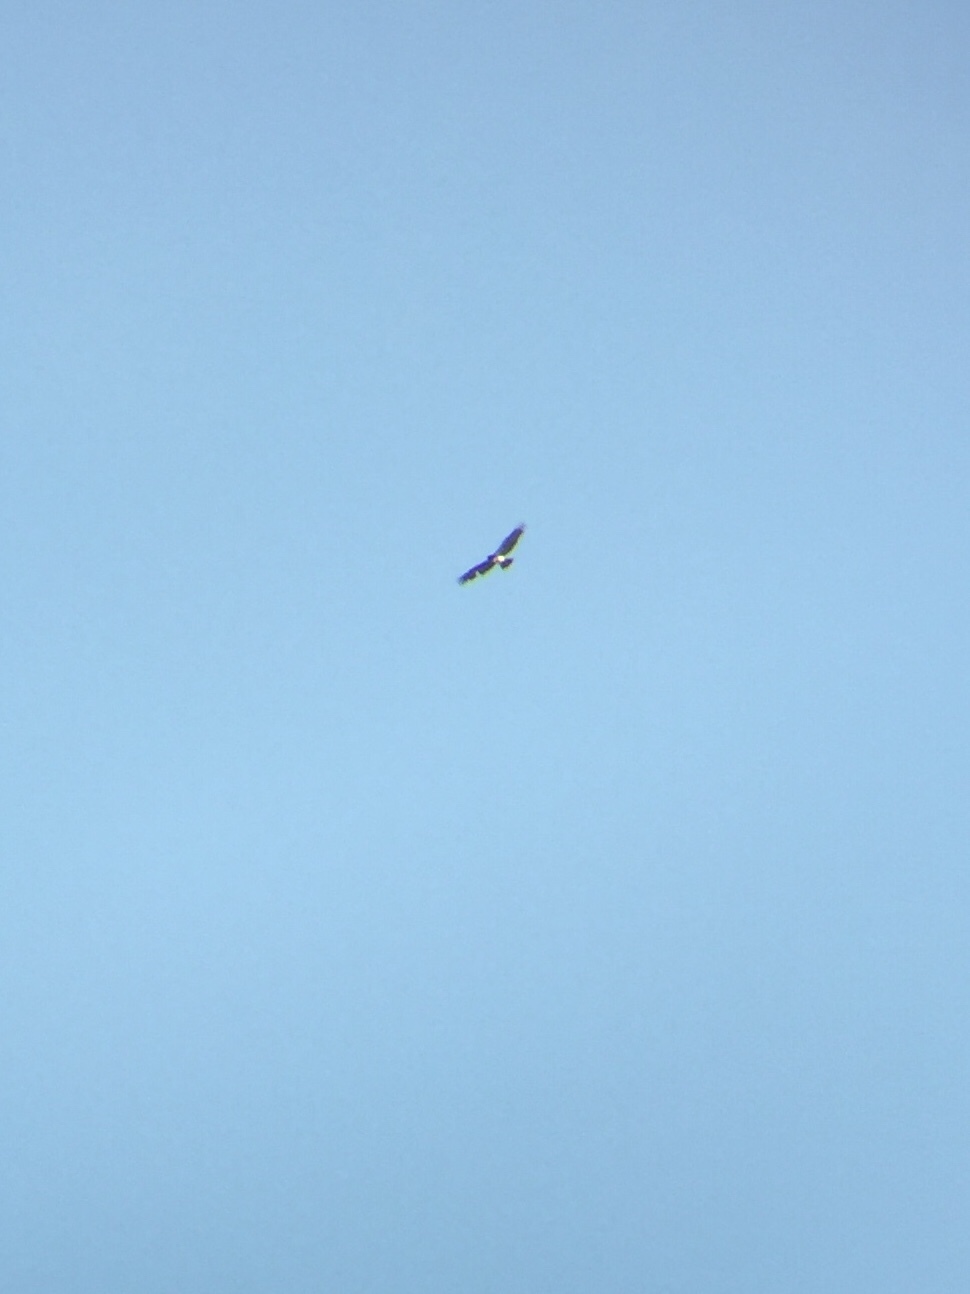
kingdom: Animalia
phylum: Chordata
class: Aves
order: Accipitriformes
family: Accipitridae
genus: Circaetus
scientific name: Circaetus gallicus
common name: Short-toed snake eagle
